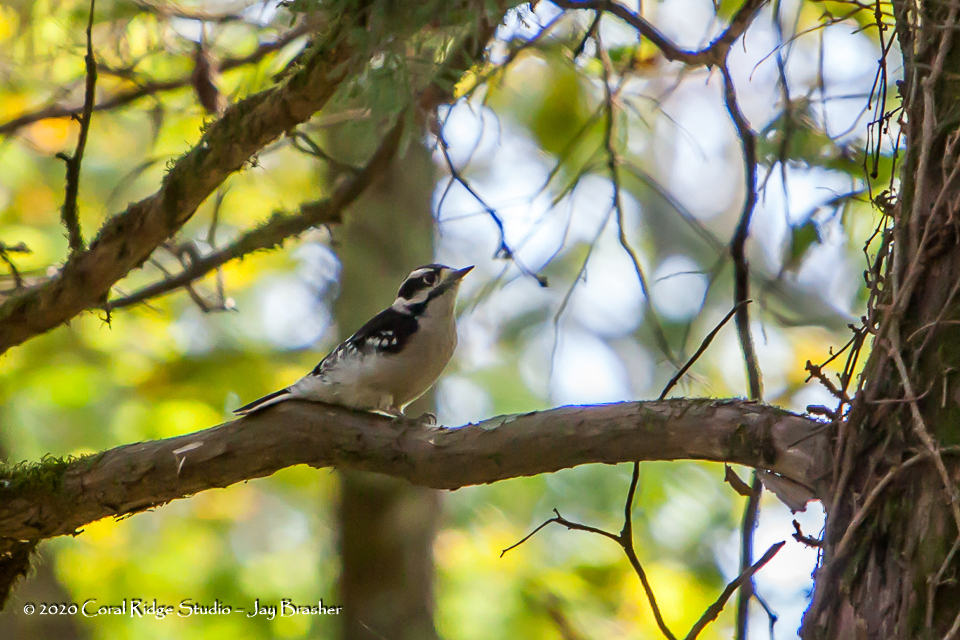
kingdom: Animalia
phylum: Chordata
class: Aves
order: Piciformes
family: Picidae
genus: Dryobates
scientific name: Dryobates pubescens
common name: Downy woodpecker
